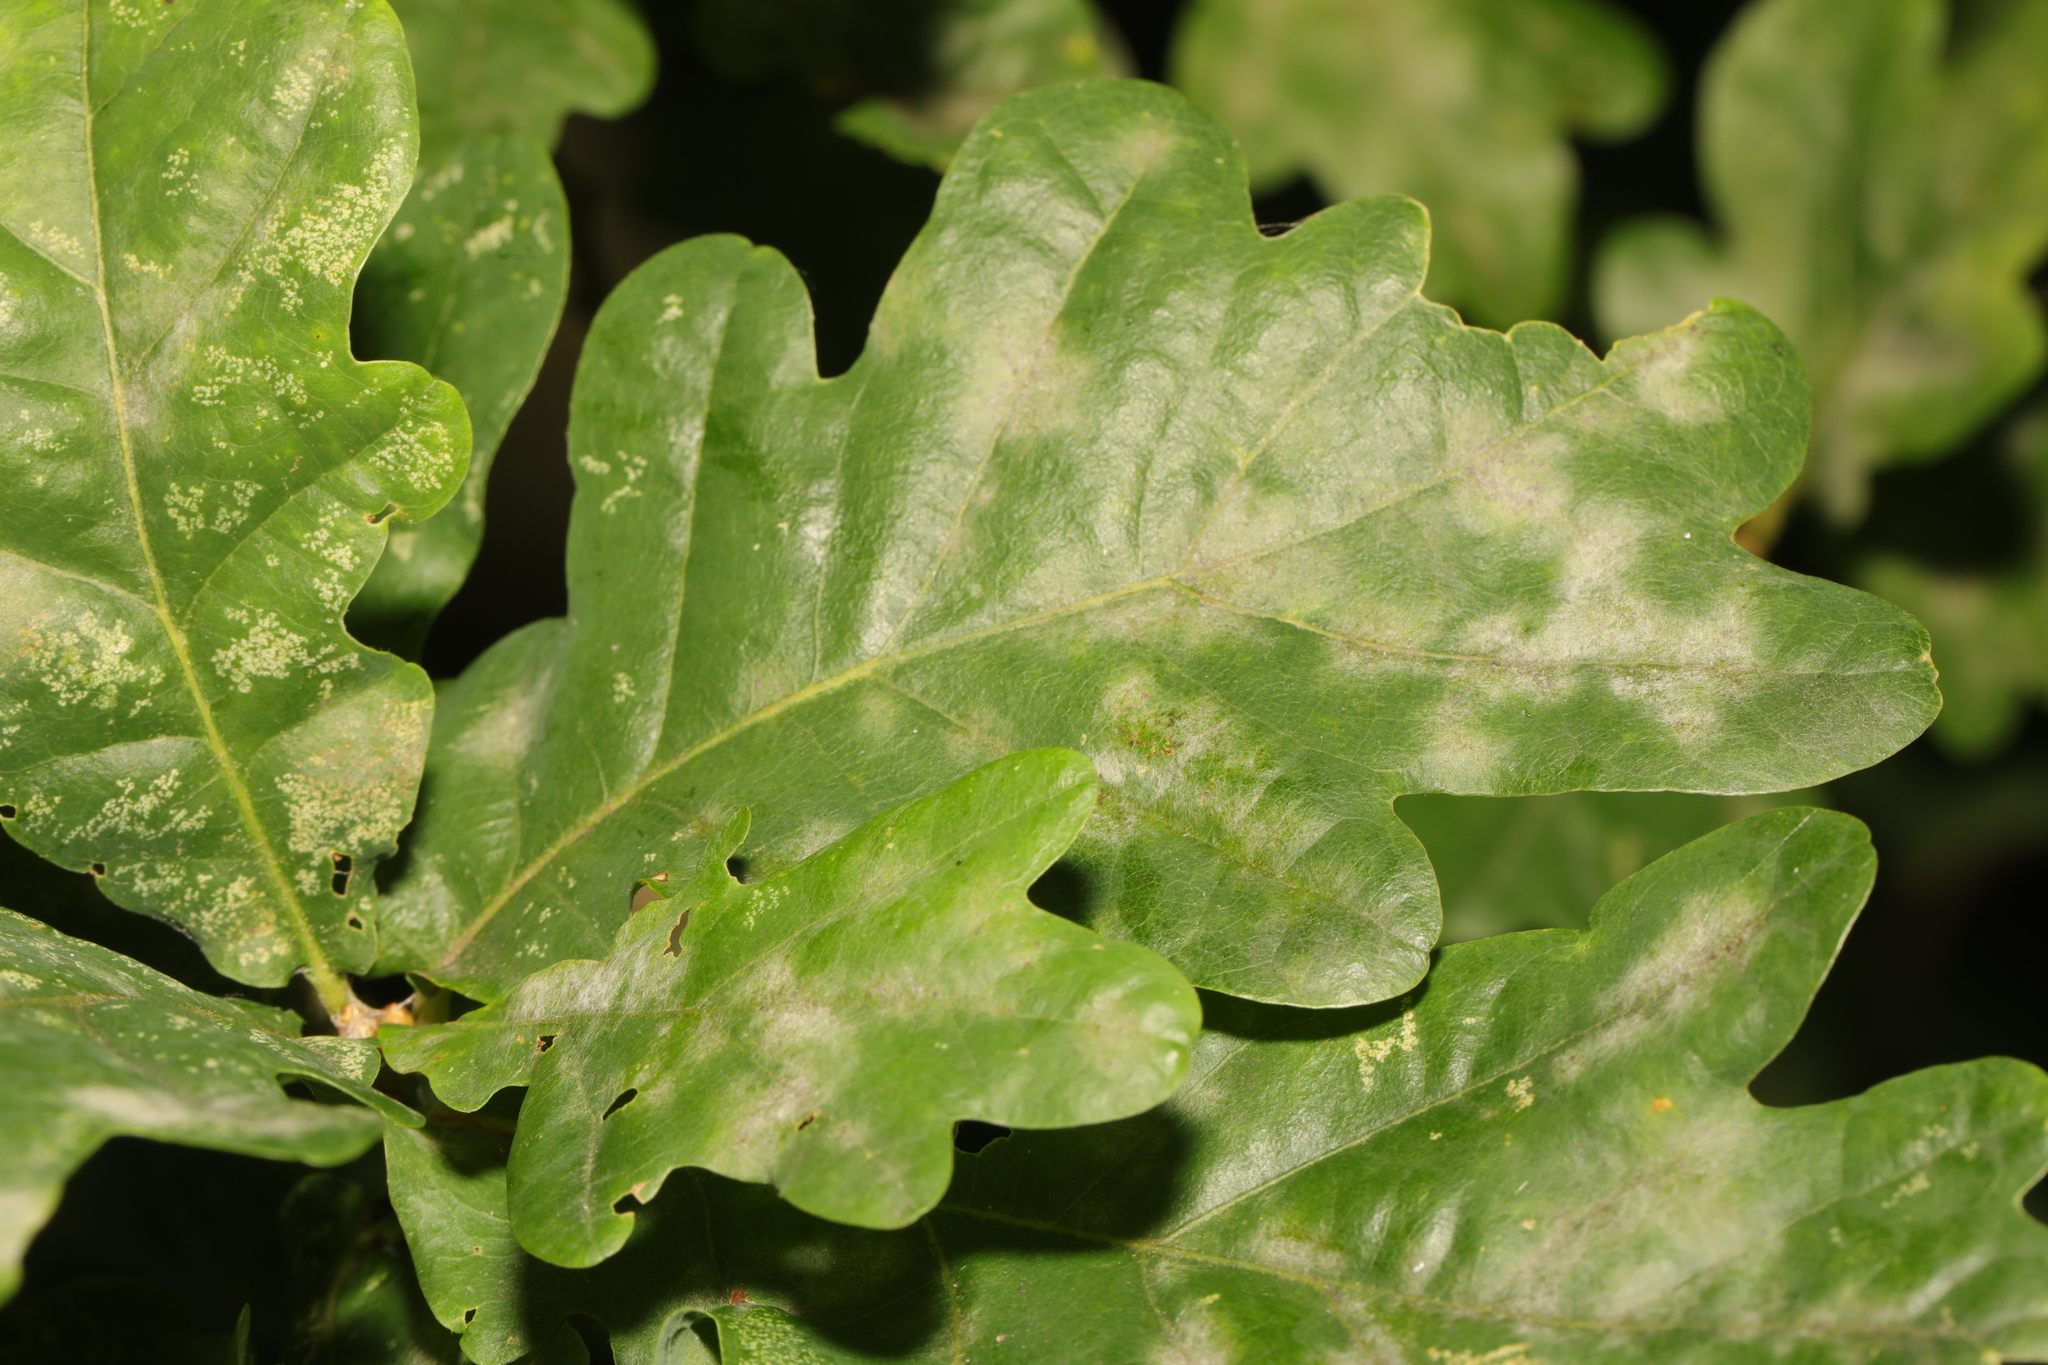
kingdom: Plantae
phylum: Tracheophyta
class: Magnoliopsida
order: Fagales
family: Fagaceae
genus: Quercus
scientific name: Quercus robur
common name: Pedunculate oak
